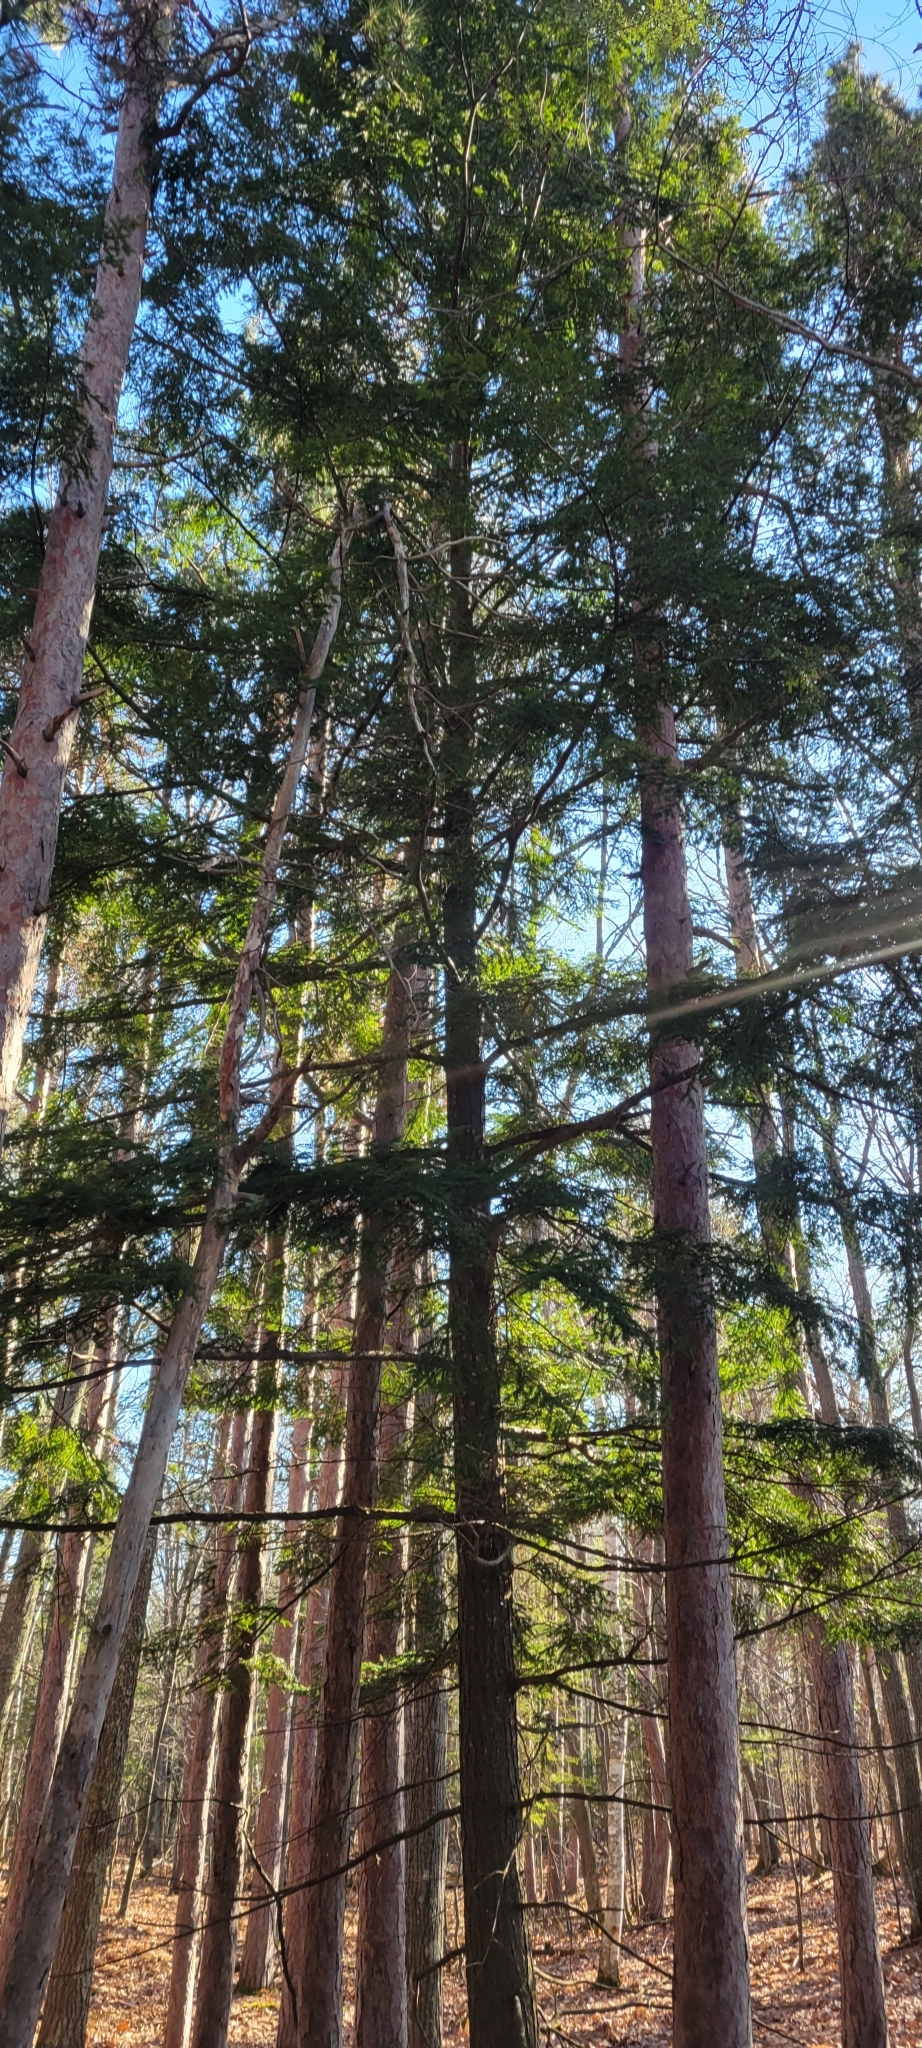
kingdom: Plantae
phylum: Tracheophyta
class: Pinopsida
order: Pinales
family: Pinaceae
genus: Tsuga
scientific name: Tsuga canadensis
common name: Eastern hemlock
